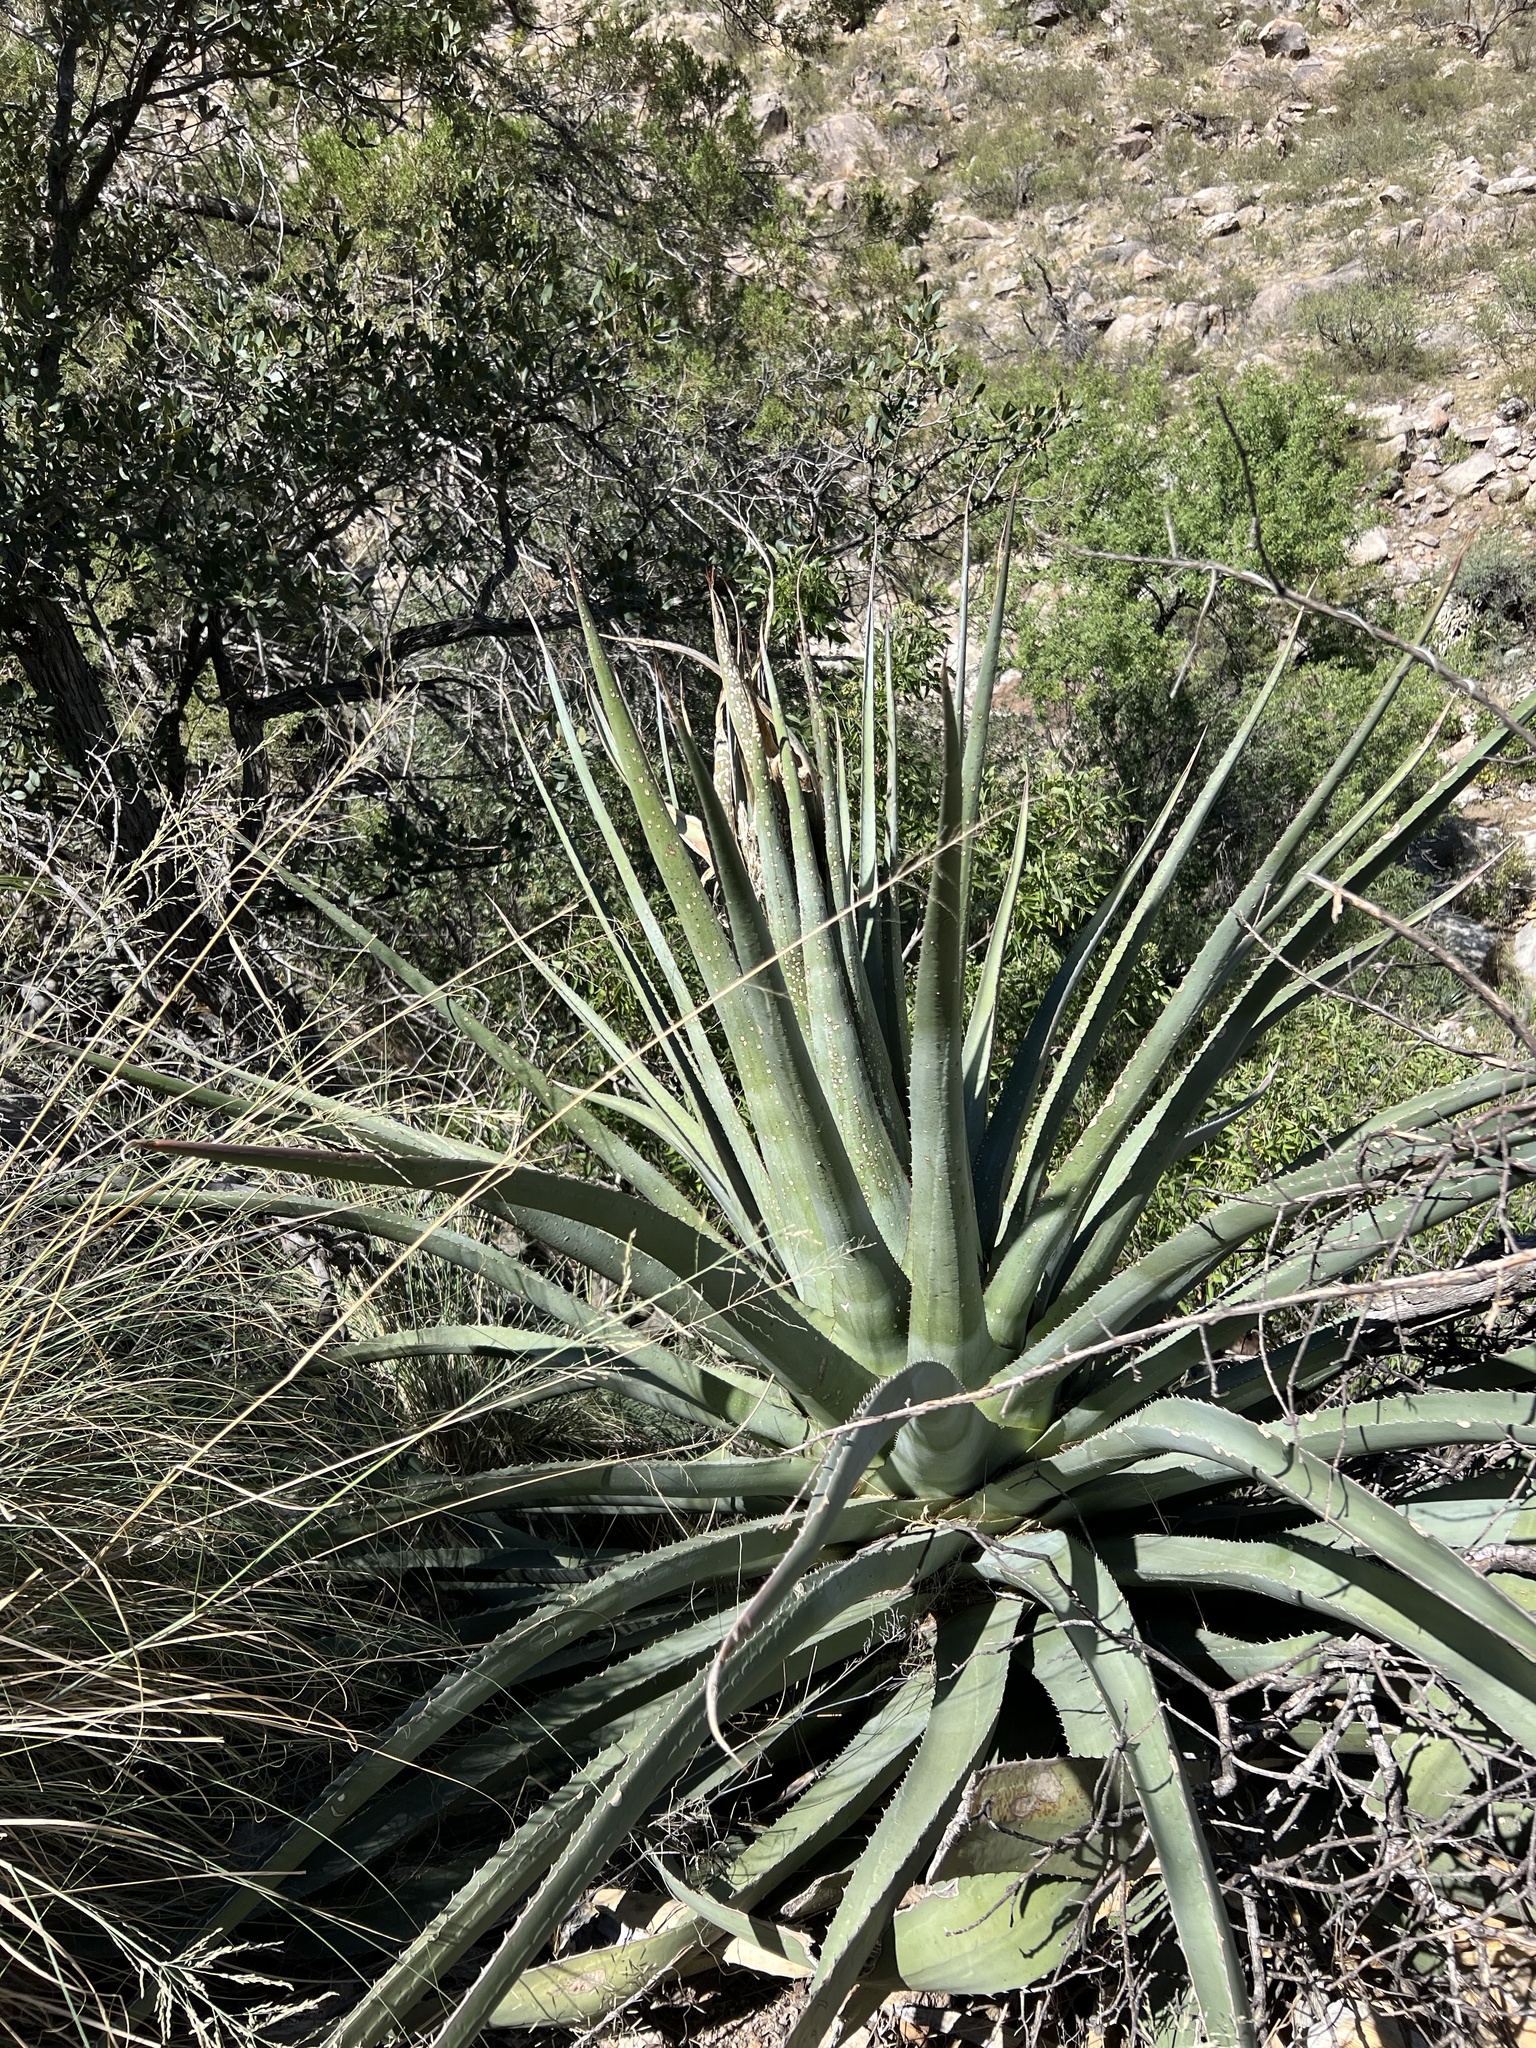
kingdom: Plantae
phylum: Tracheophyta
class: Liliopsida
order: Asparagales
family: Asparagaceae
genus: Agave
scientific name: Agave palmeri
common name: Palmer agave
